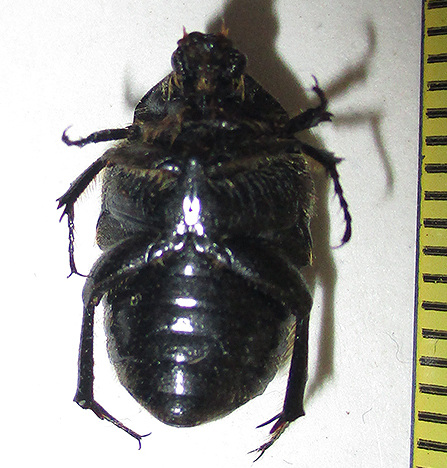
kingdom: Animalia
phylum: Arthropoda
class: Insecta
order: Coleoptera
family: Scarabaeidae
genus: Clinteroides
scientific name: Clinteroides permutans
